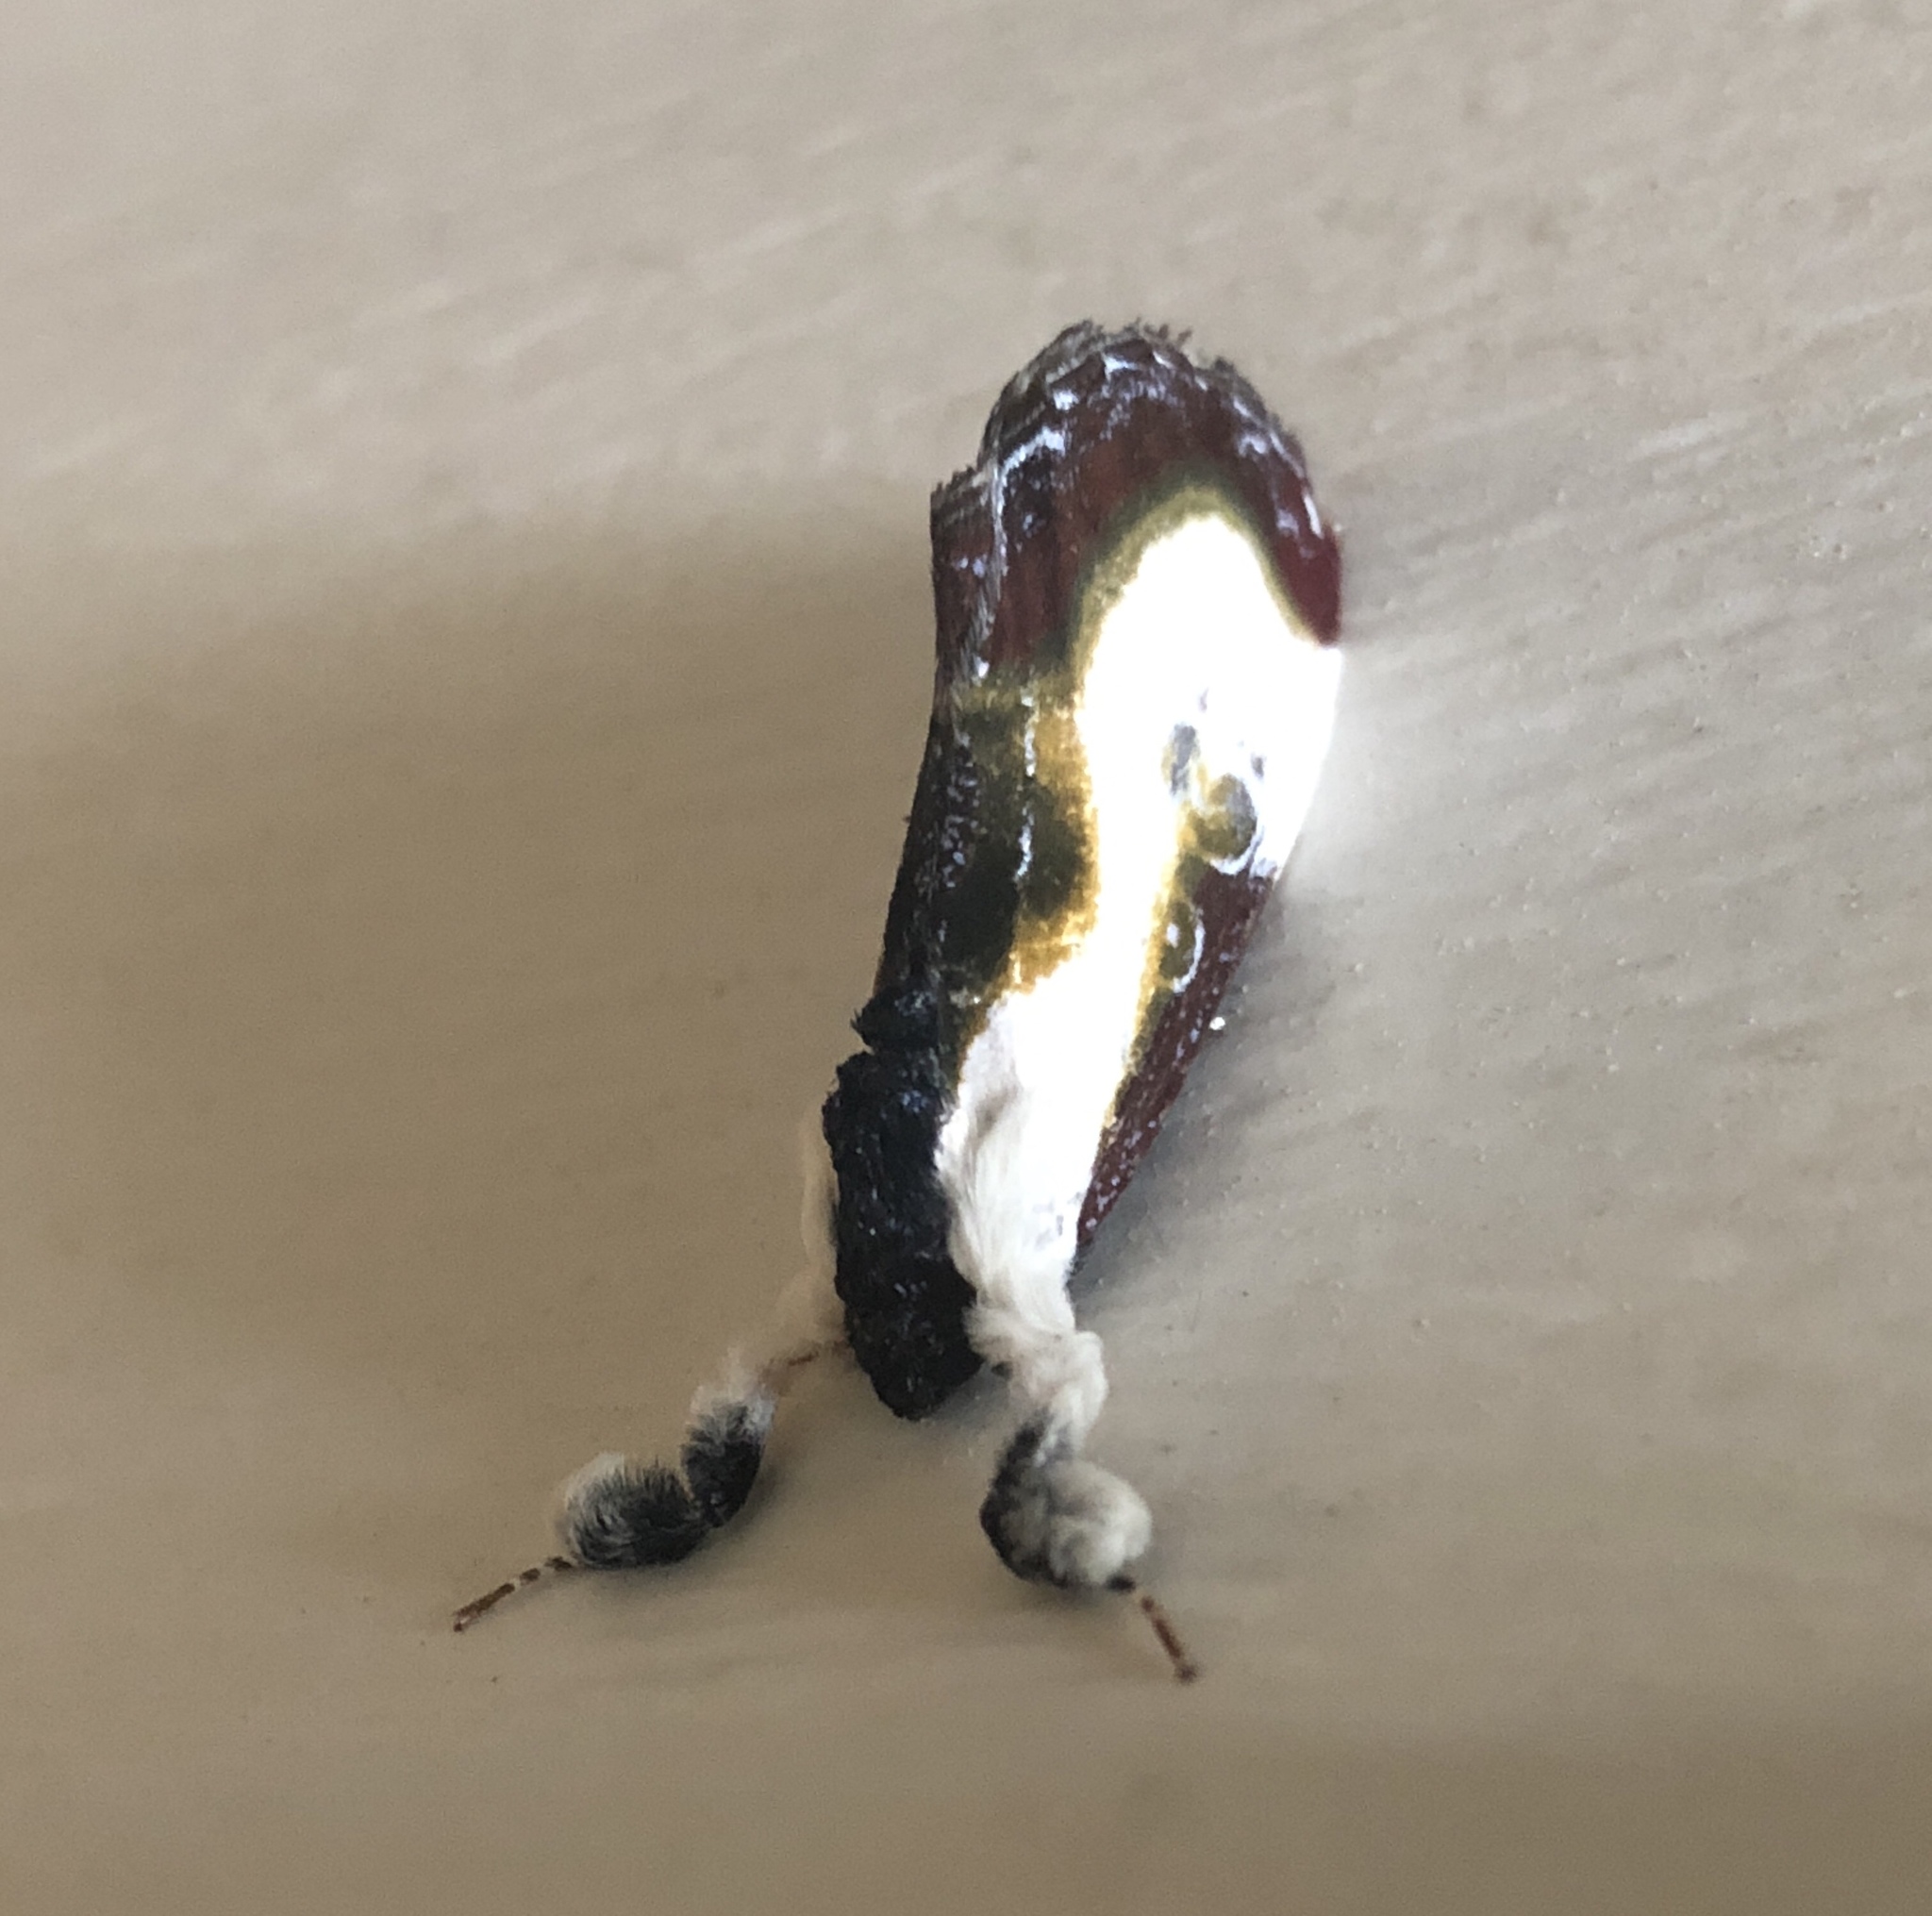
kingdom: Animalia
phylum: Arthropoda
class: Insecta
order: Lepidoptera
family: Noctuidae
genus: Eudryas
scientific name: Eudryas grata
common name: Beautiful wood-nymph
